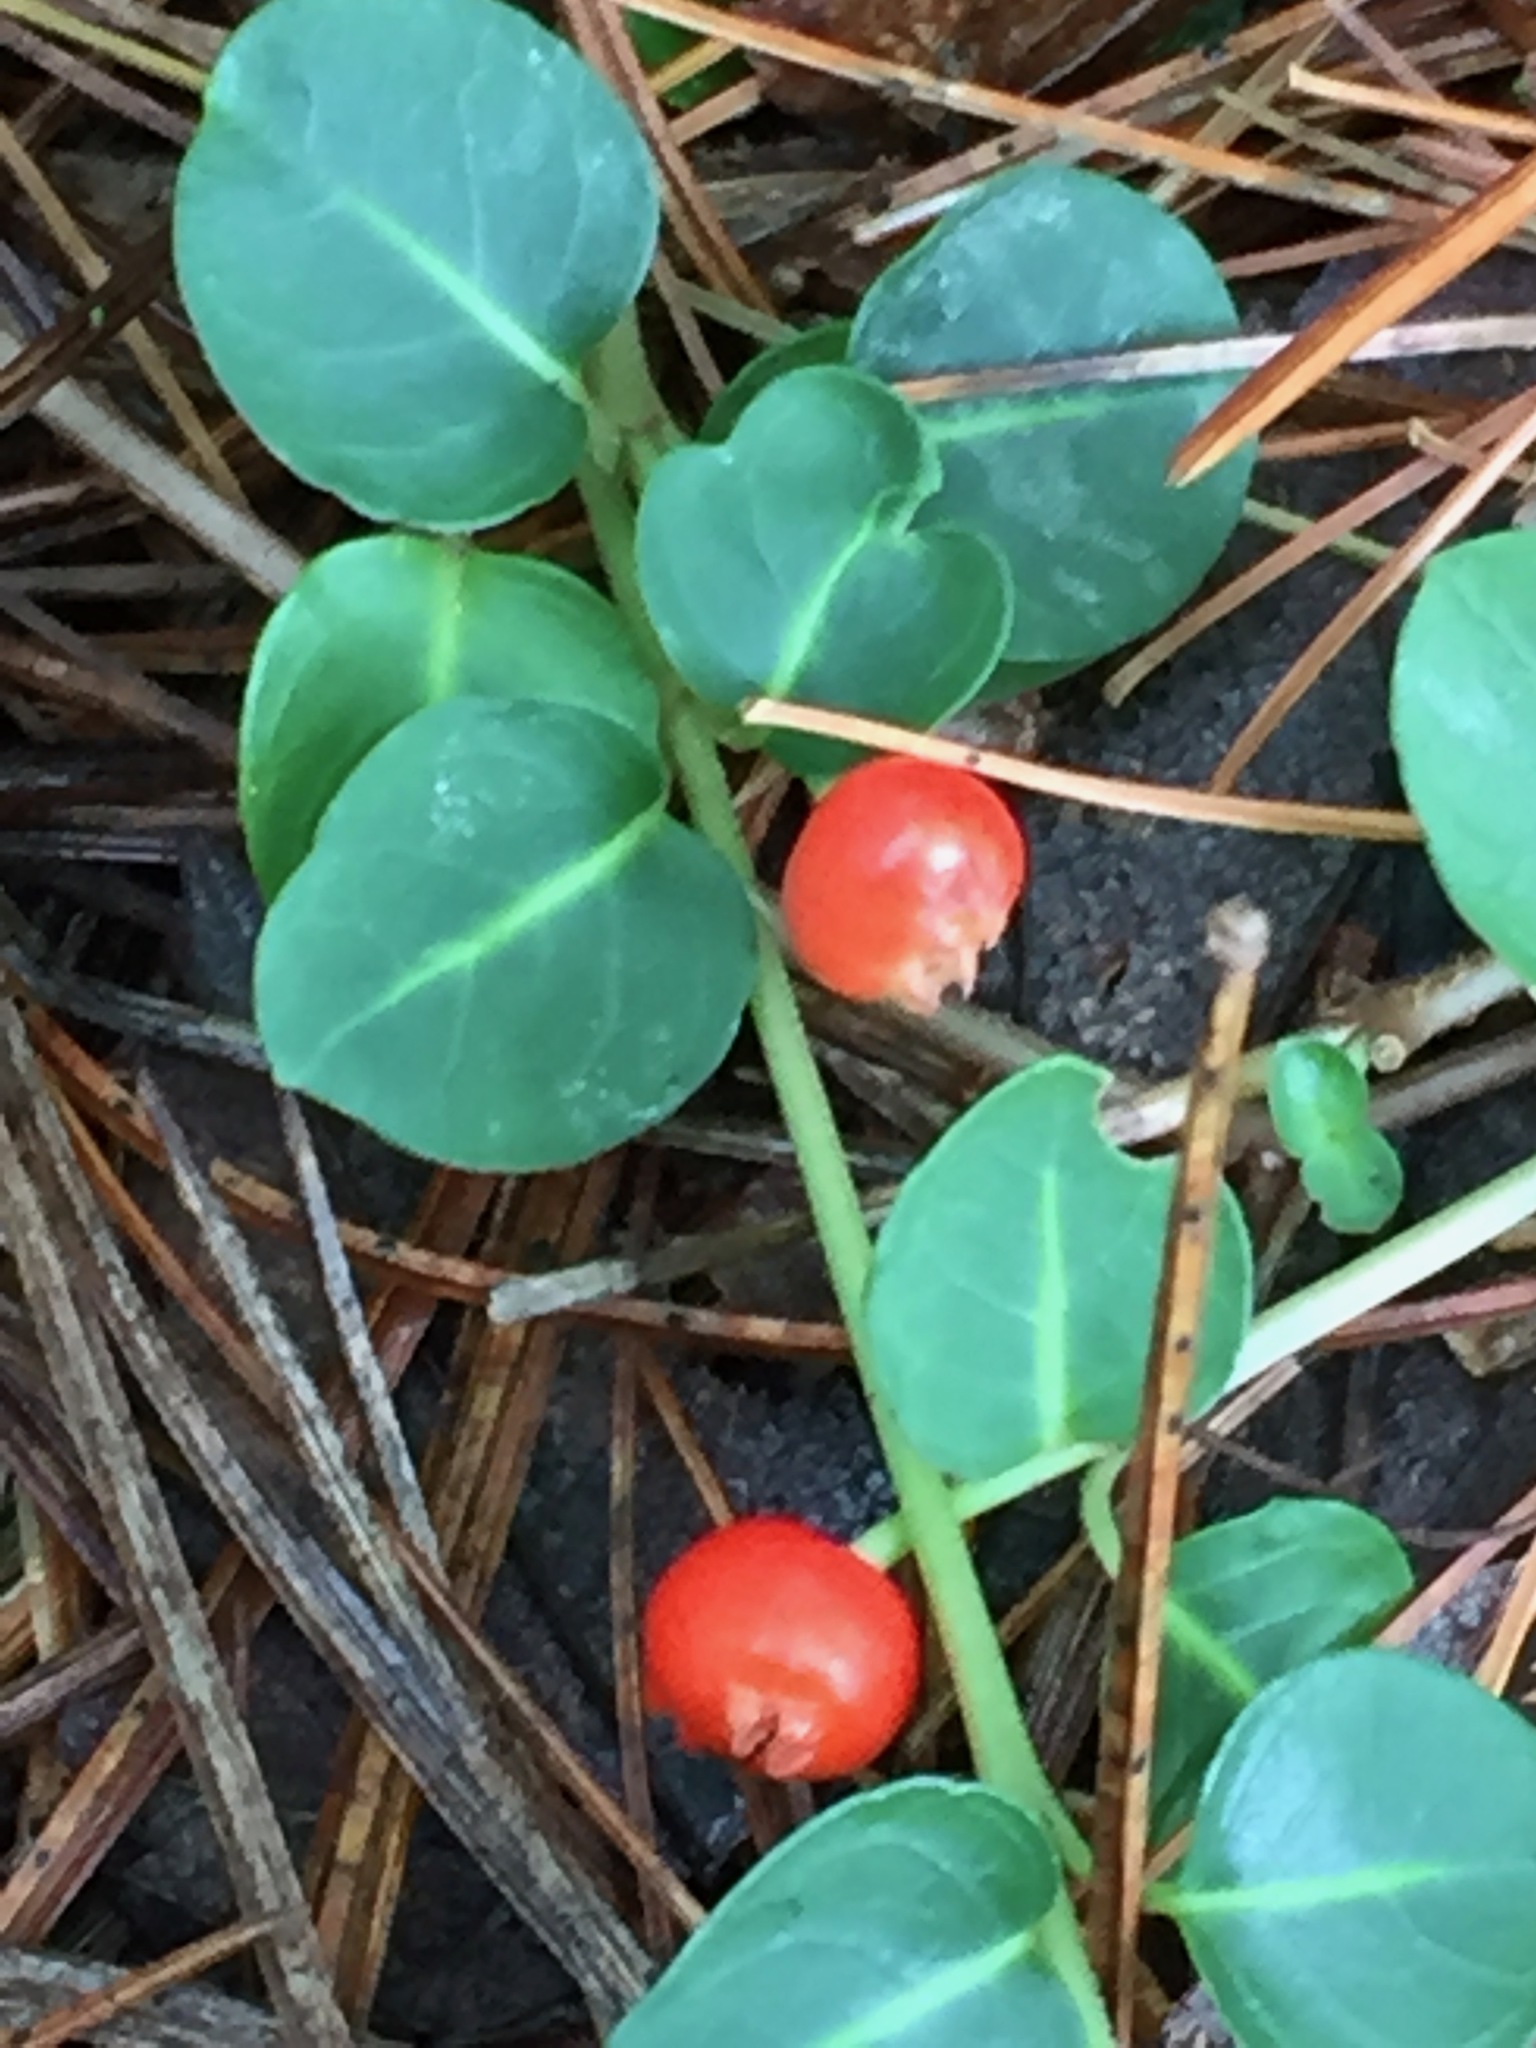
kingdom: Plantae
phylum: Tracheophyta
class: Magnoliopsida
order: Gentianales
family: Rubiaceae
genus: Mitchella
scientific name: Mitchella repens
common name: Partridge-berry
